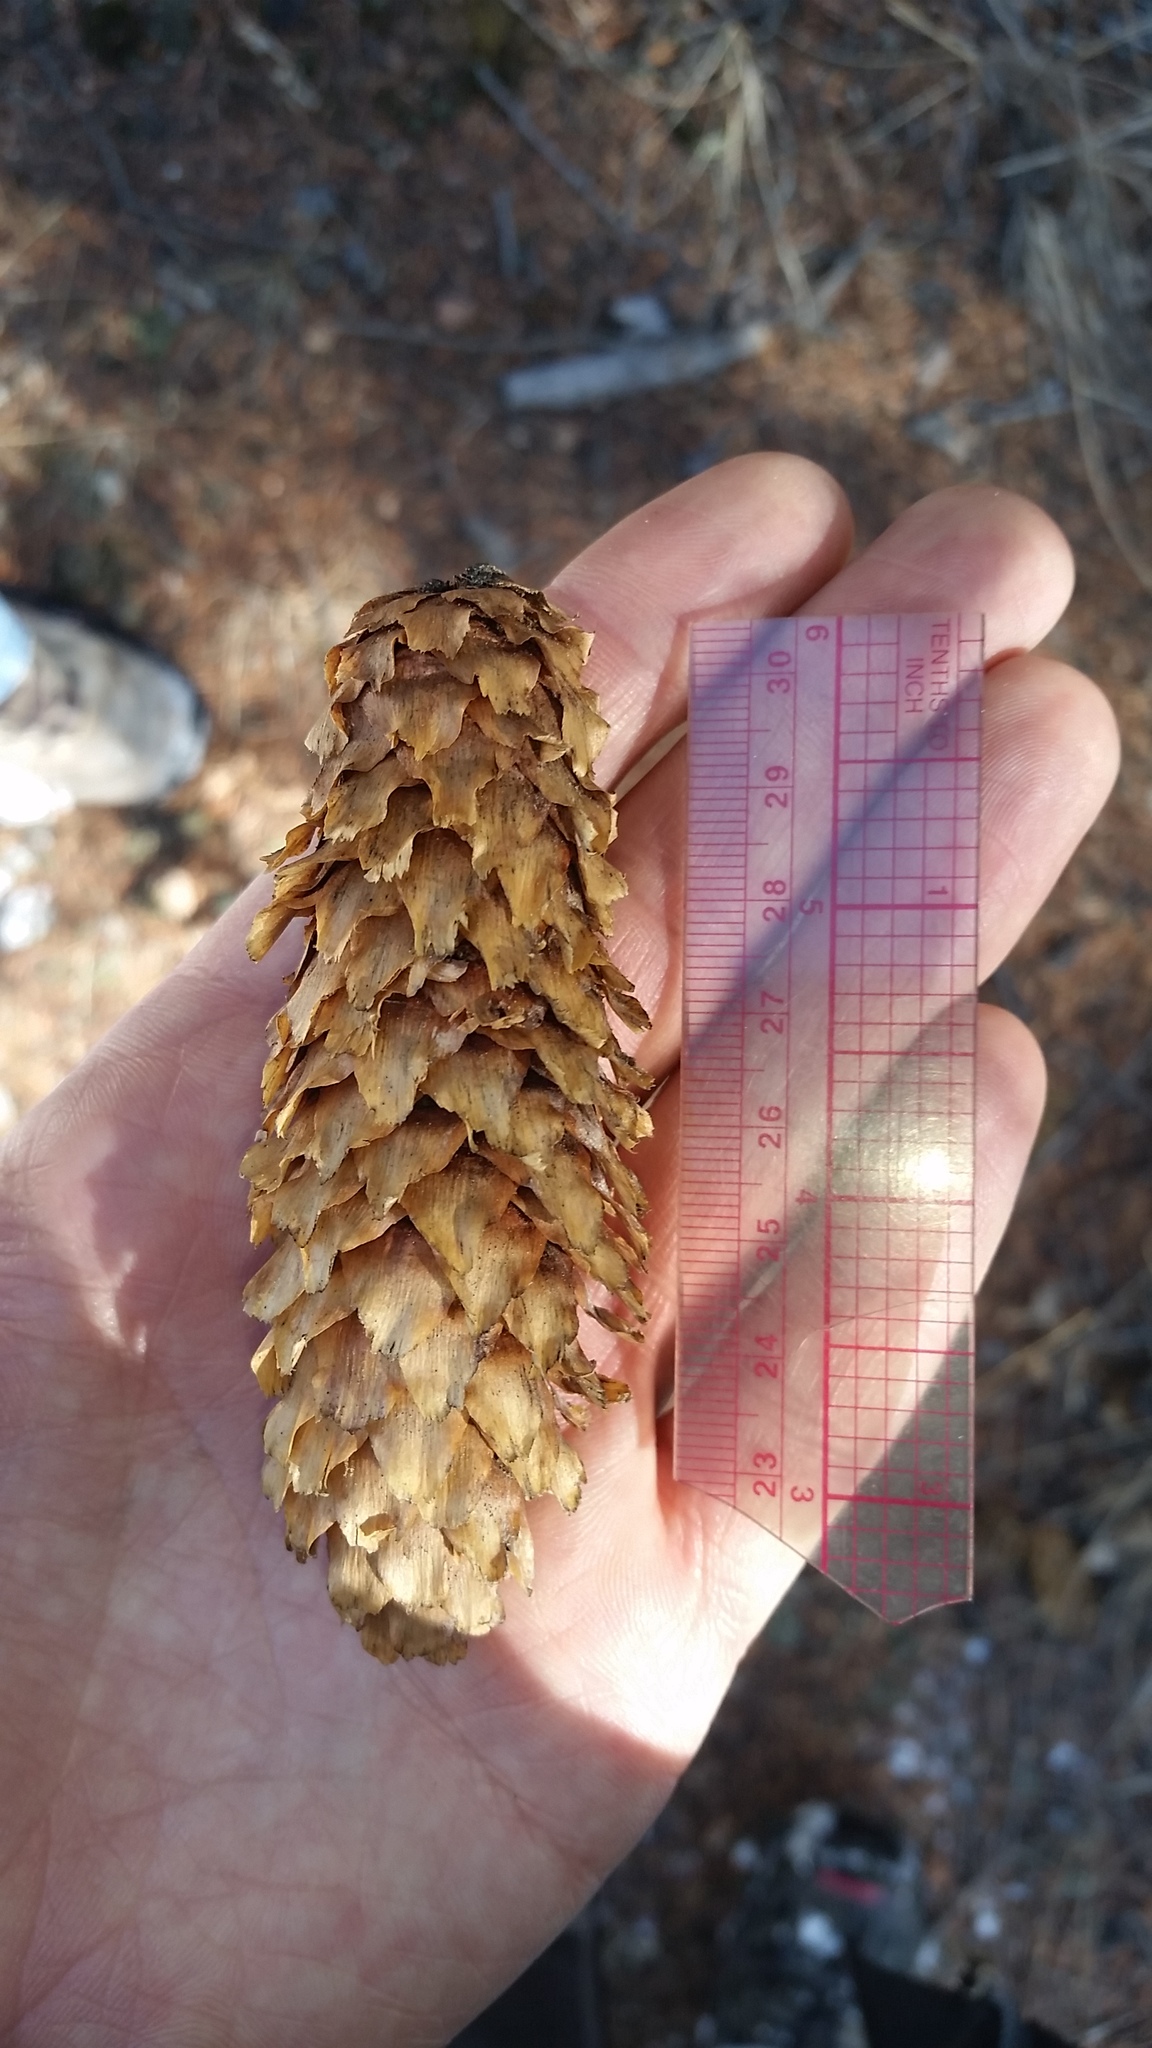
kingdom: Plantae
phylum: Tracheophyta
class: Pinopsida
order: Pinales
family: Pinaceae
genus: Picea
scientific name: Picea pungens
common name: Colorado spruce
